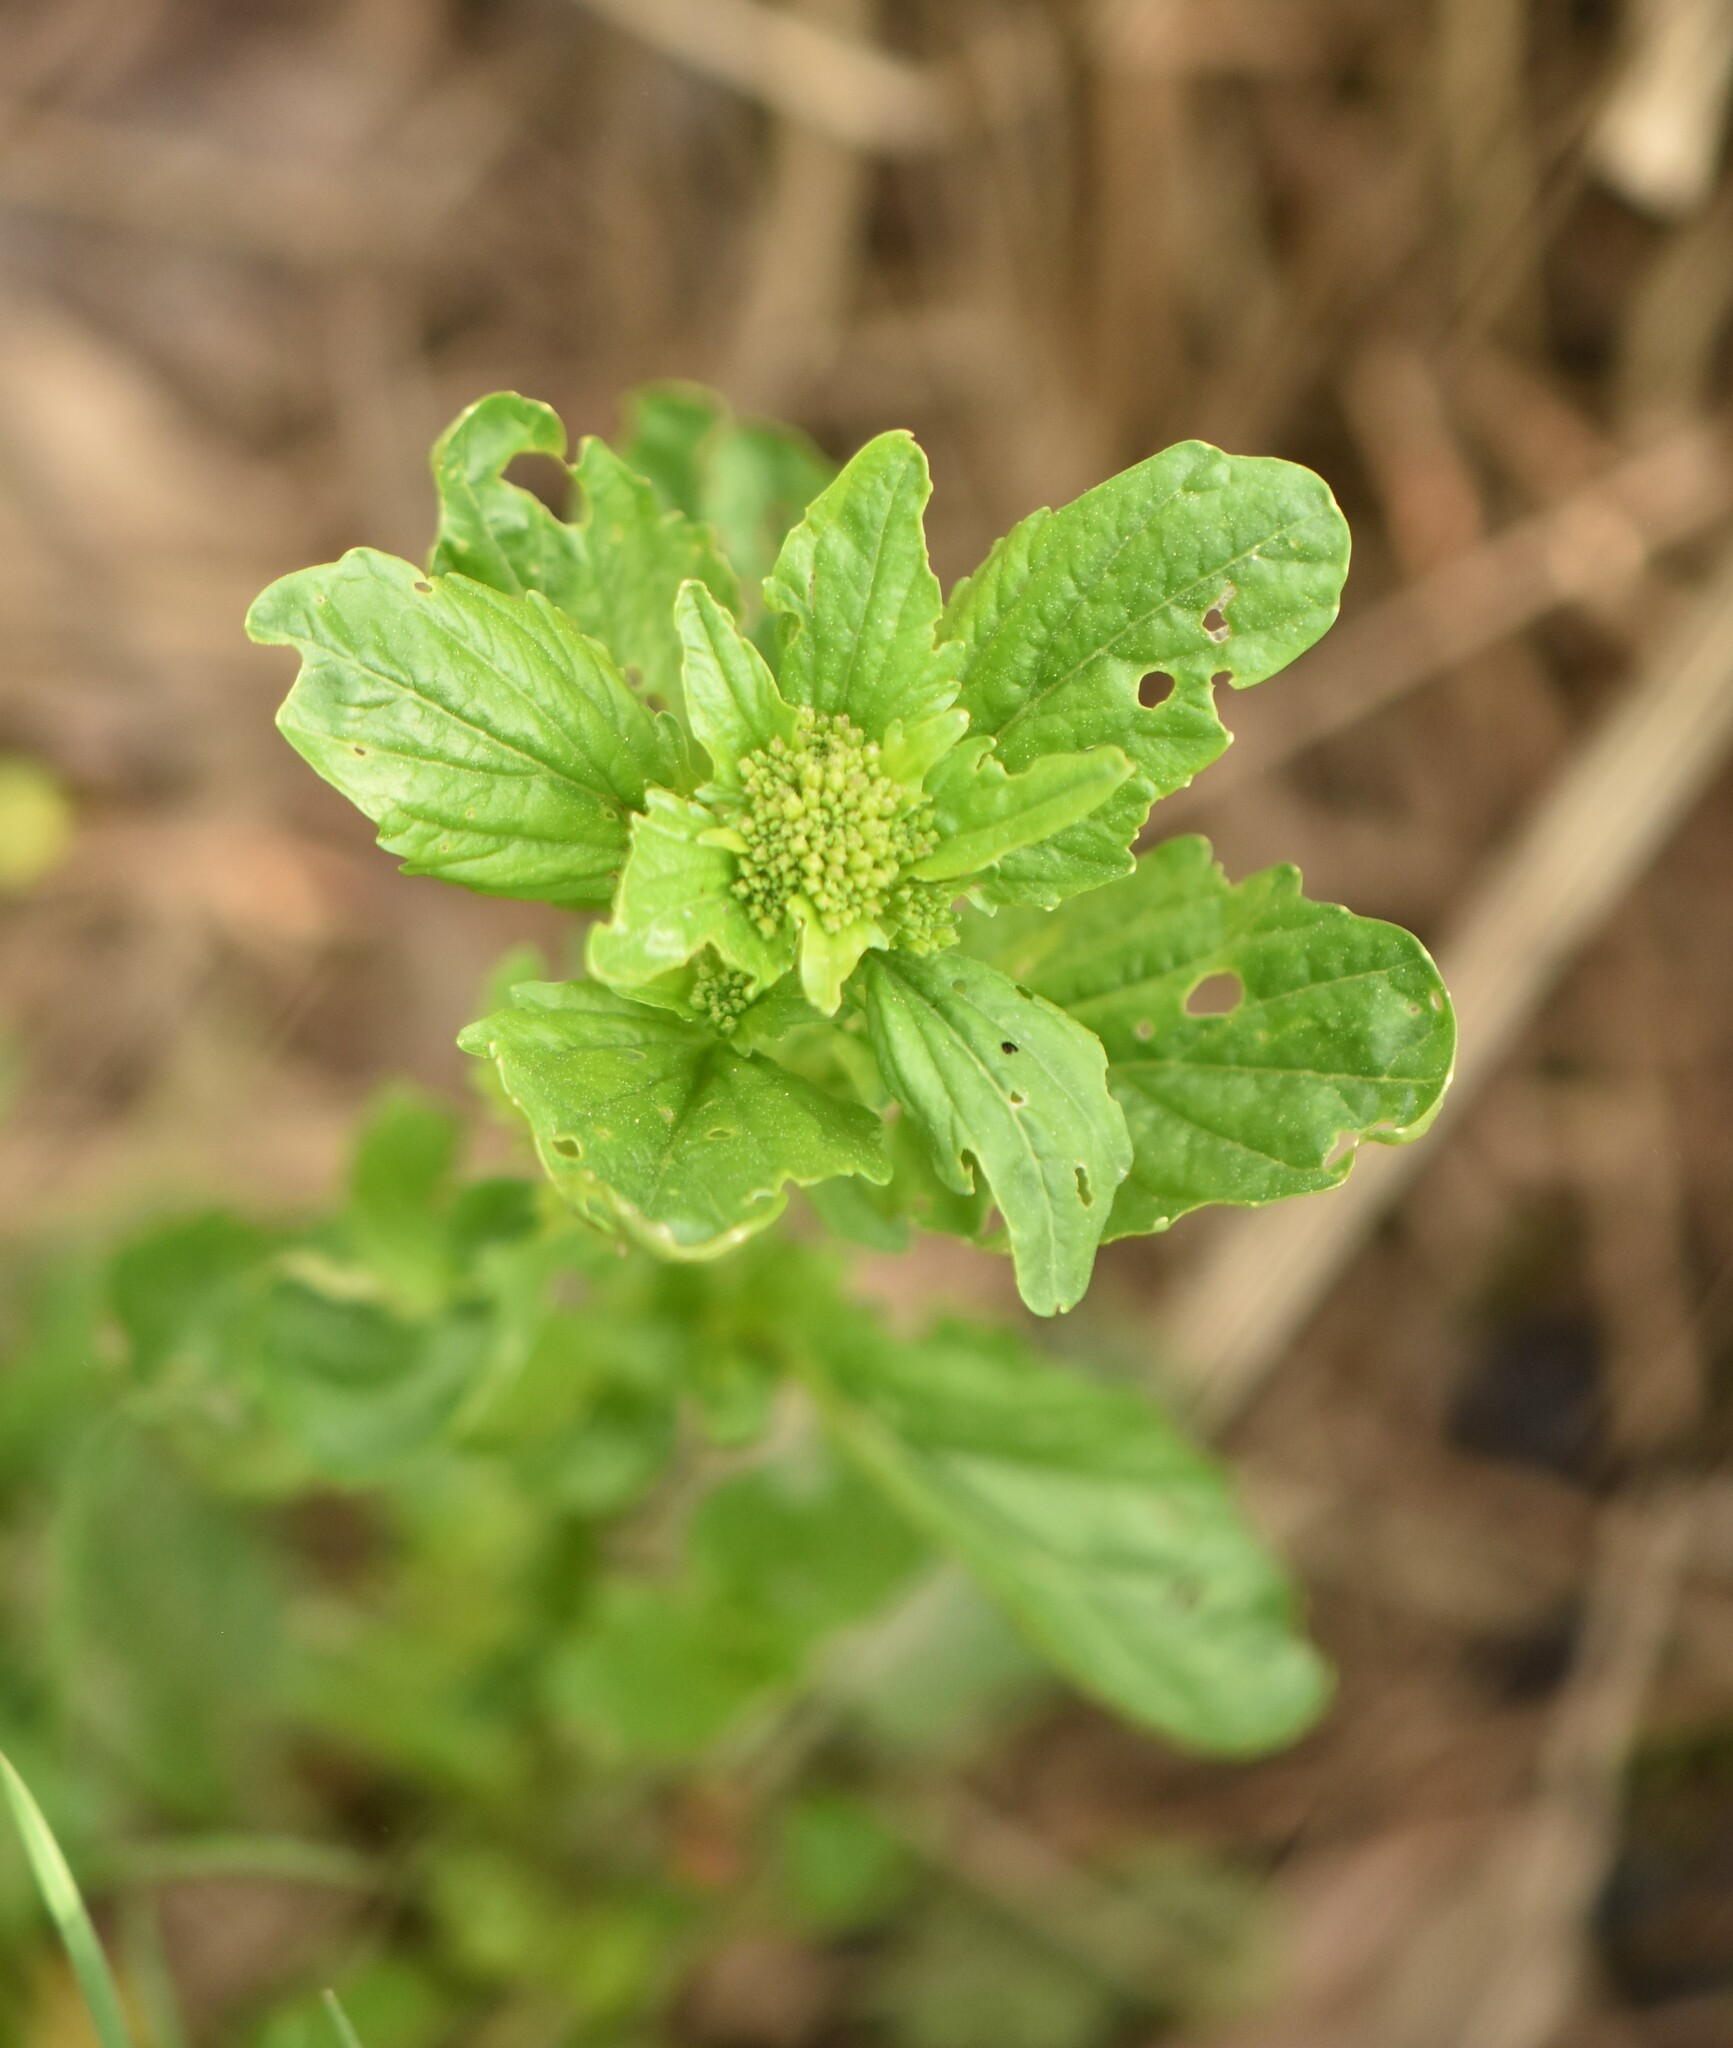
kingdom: Plantae
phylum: Tracheophyta
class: Magnoliopsida
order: Brassicales
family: Brassicaceae
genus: Barbarea
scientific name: Barbarea stricta
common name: Small-flowered winter-cress
